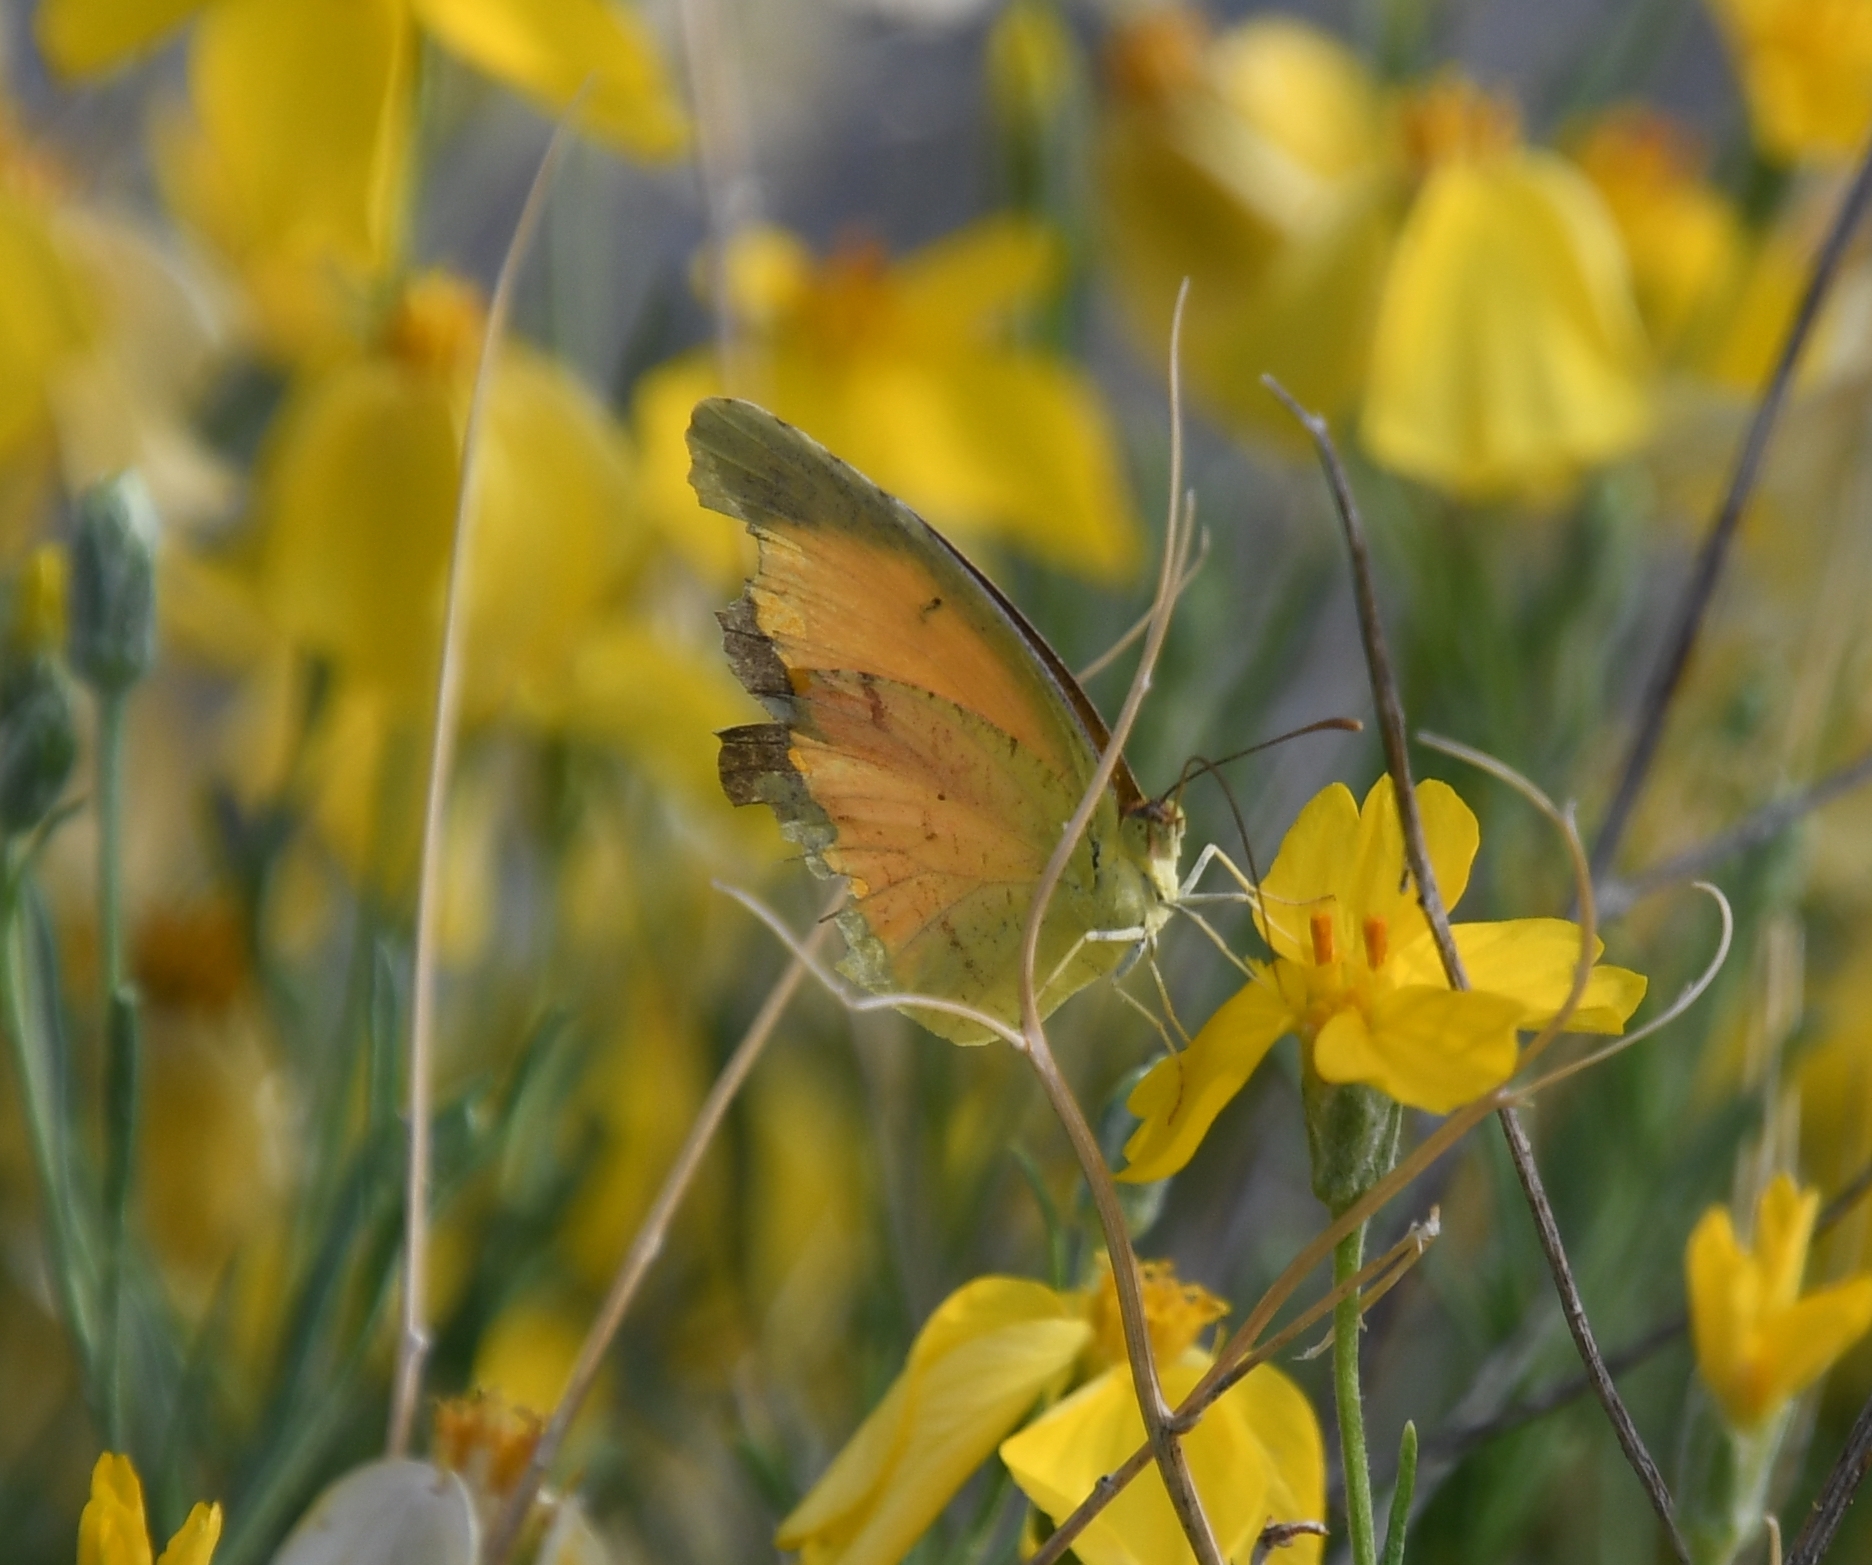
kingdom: Animalia
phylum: Arthropoda
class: Insecta
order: Lepidoptera
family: Pieridae
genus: Abaeis
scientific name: Abaeis nicippe
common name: Sleepy orange
